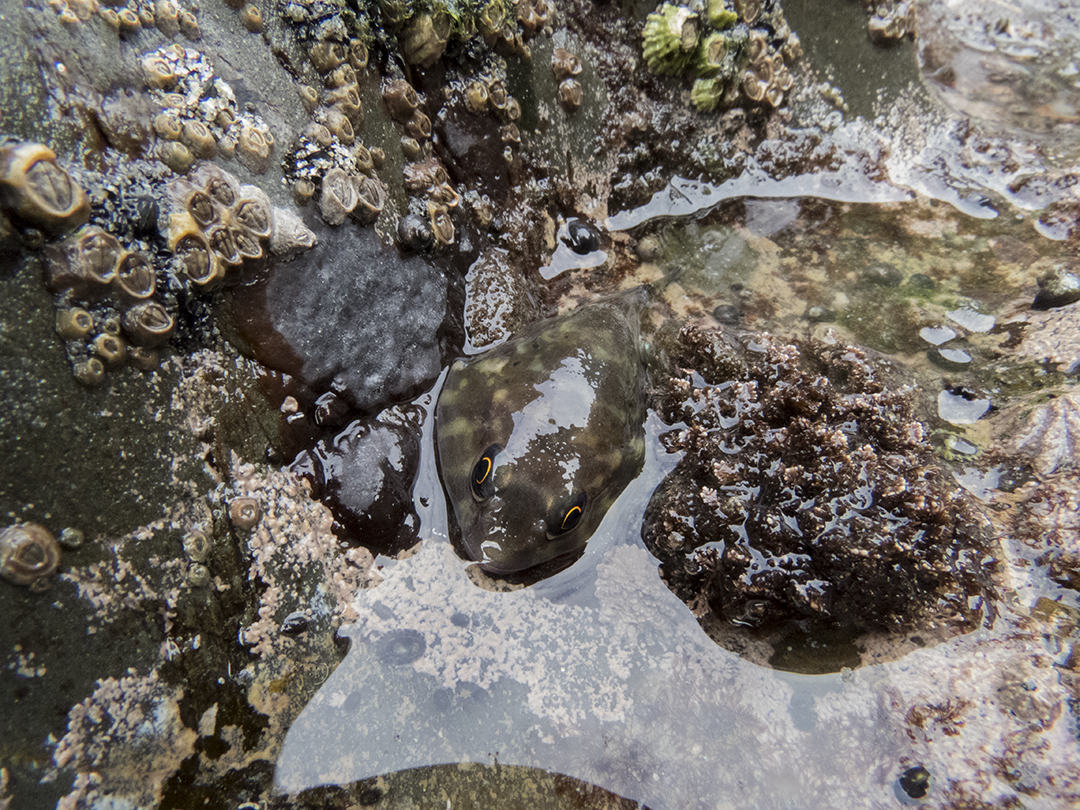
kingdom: Animalia
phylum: Chordata
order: Gobiesociformes
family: Gobiesocidae
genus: Diplocrepis
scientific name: Diplocrepis puniceus
